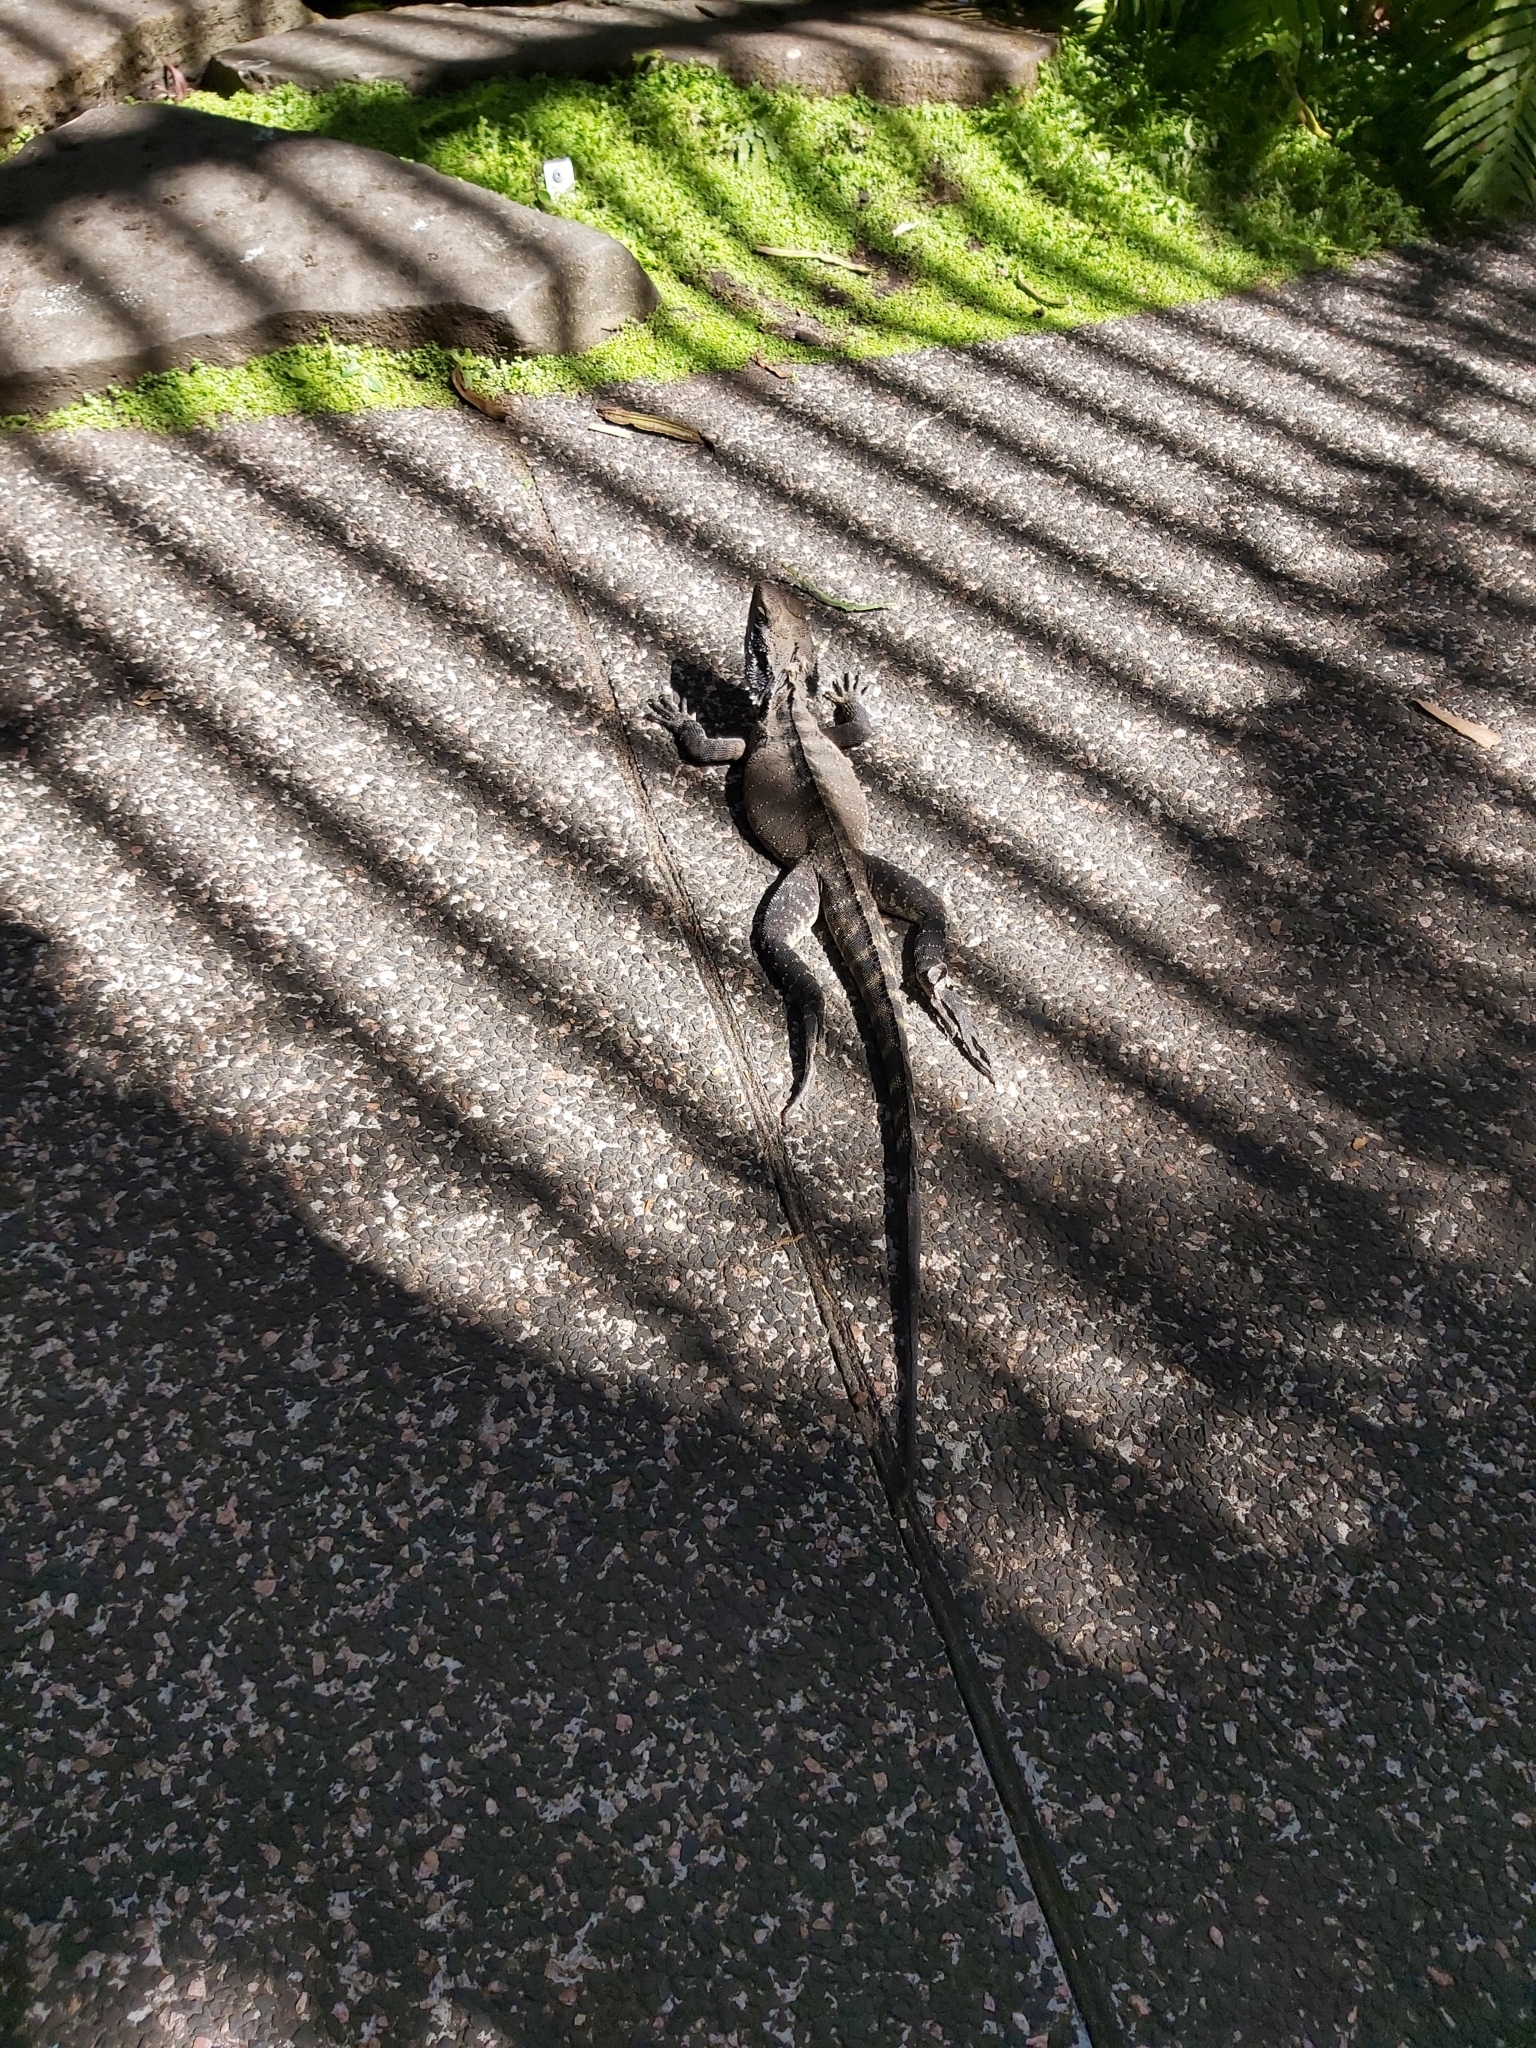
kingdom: Animalia
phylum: Chordata
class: Squamata
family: Agamidae
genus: Intellagama
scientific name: Intellagama lesueurii
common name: Eastern water dragon
